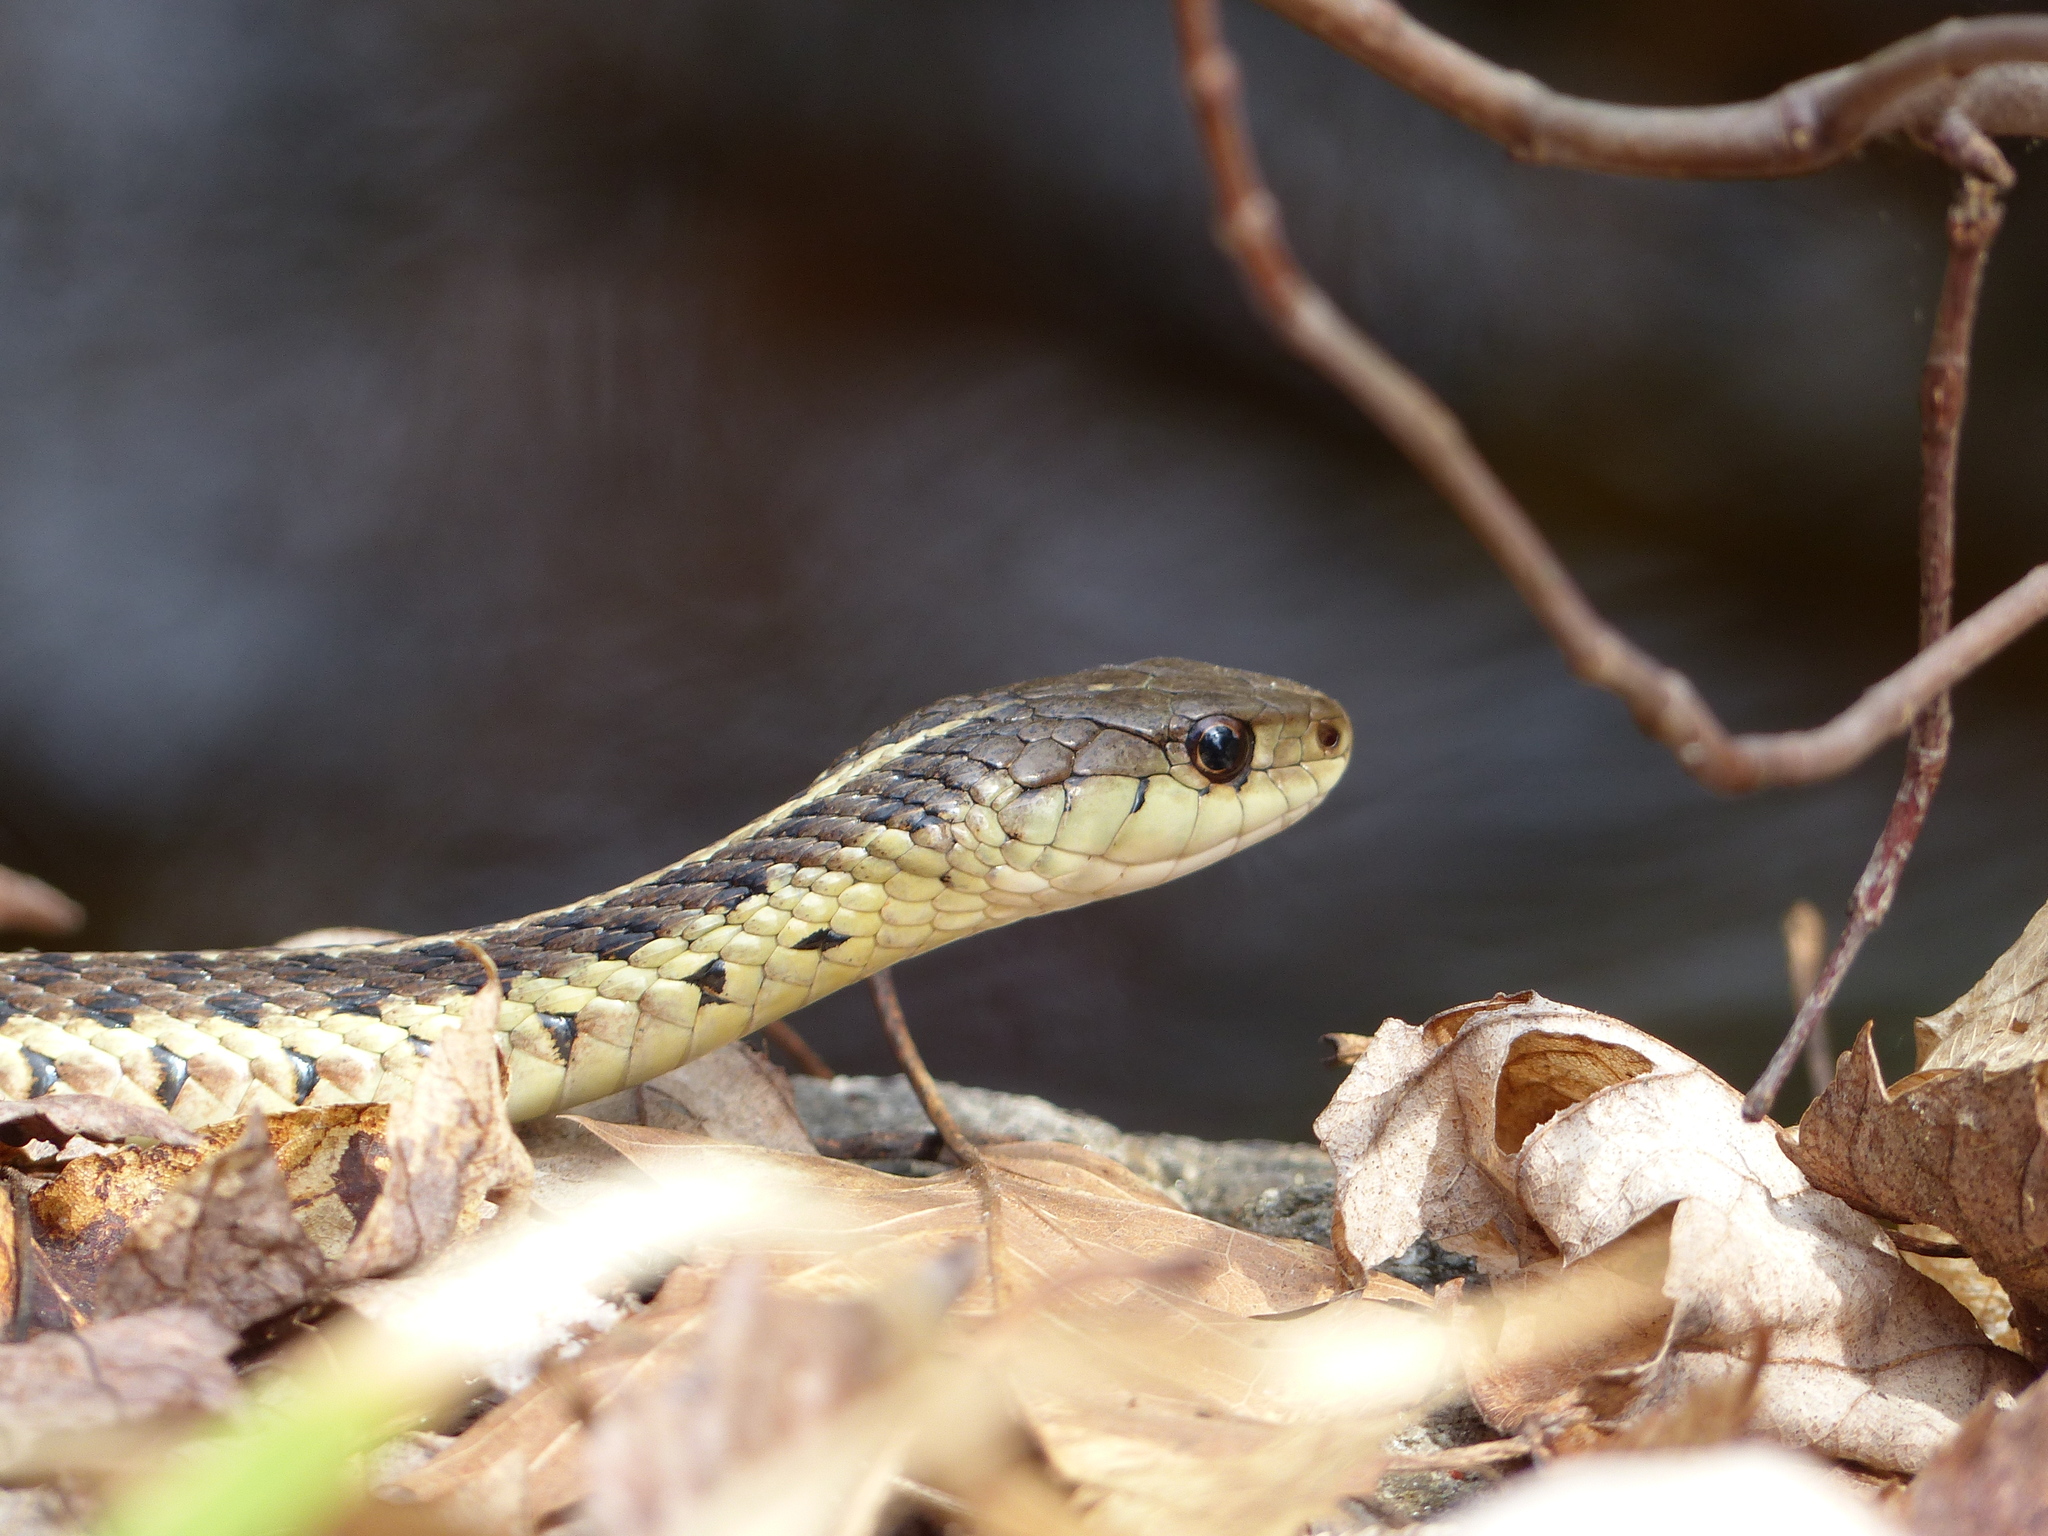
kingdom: Animalia
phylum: Chordata
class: Squamata
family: Colubridae
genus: Thamnophis
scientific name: Thamnophis sirtalis
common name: Common garter snake
